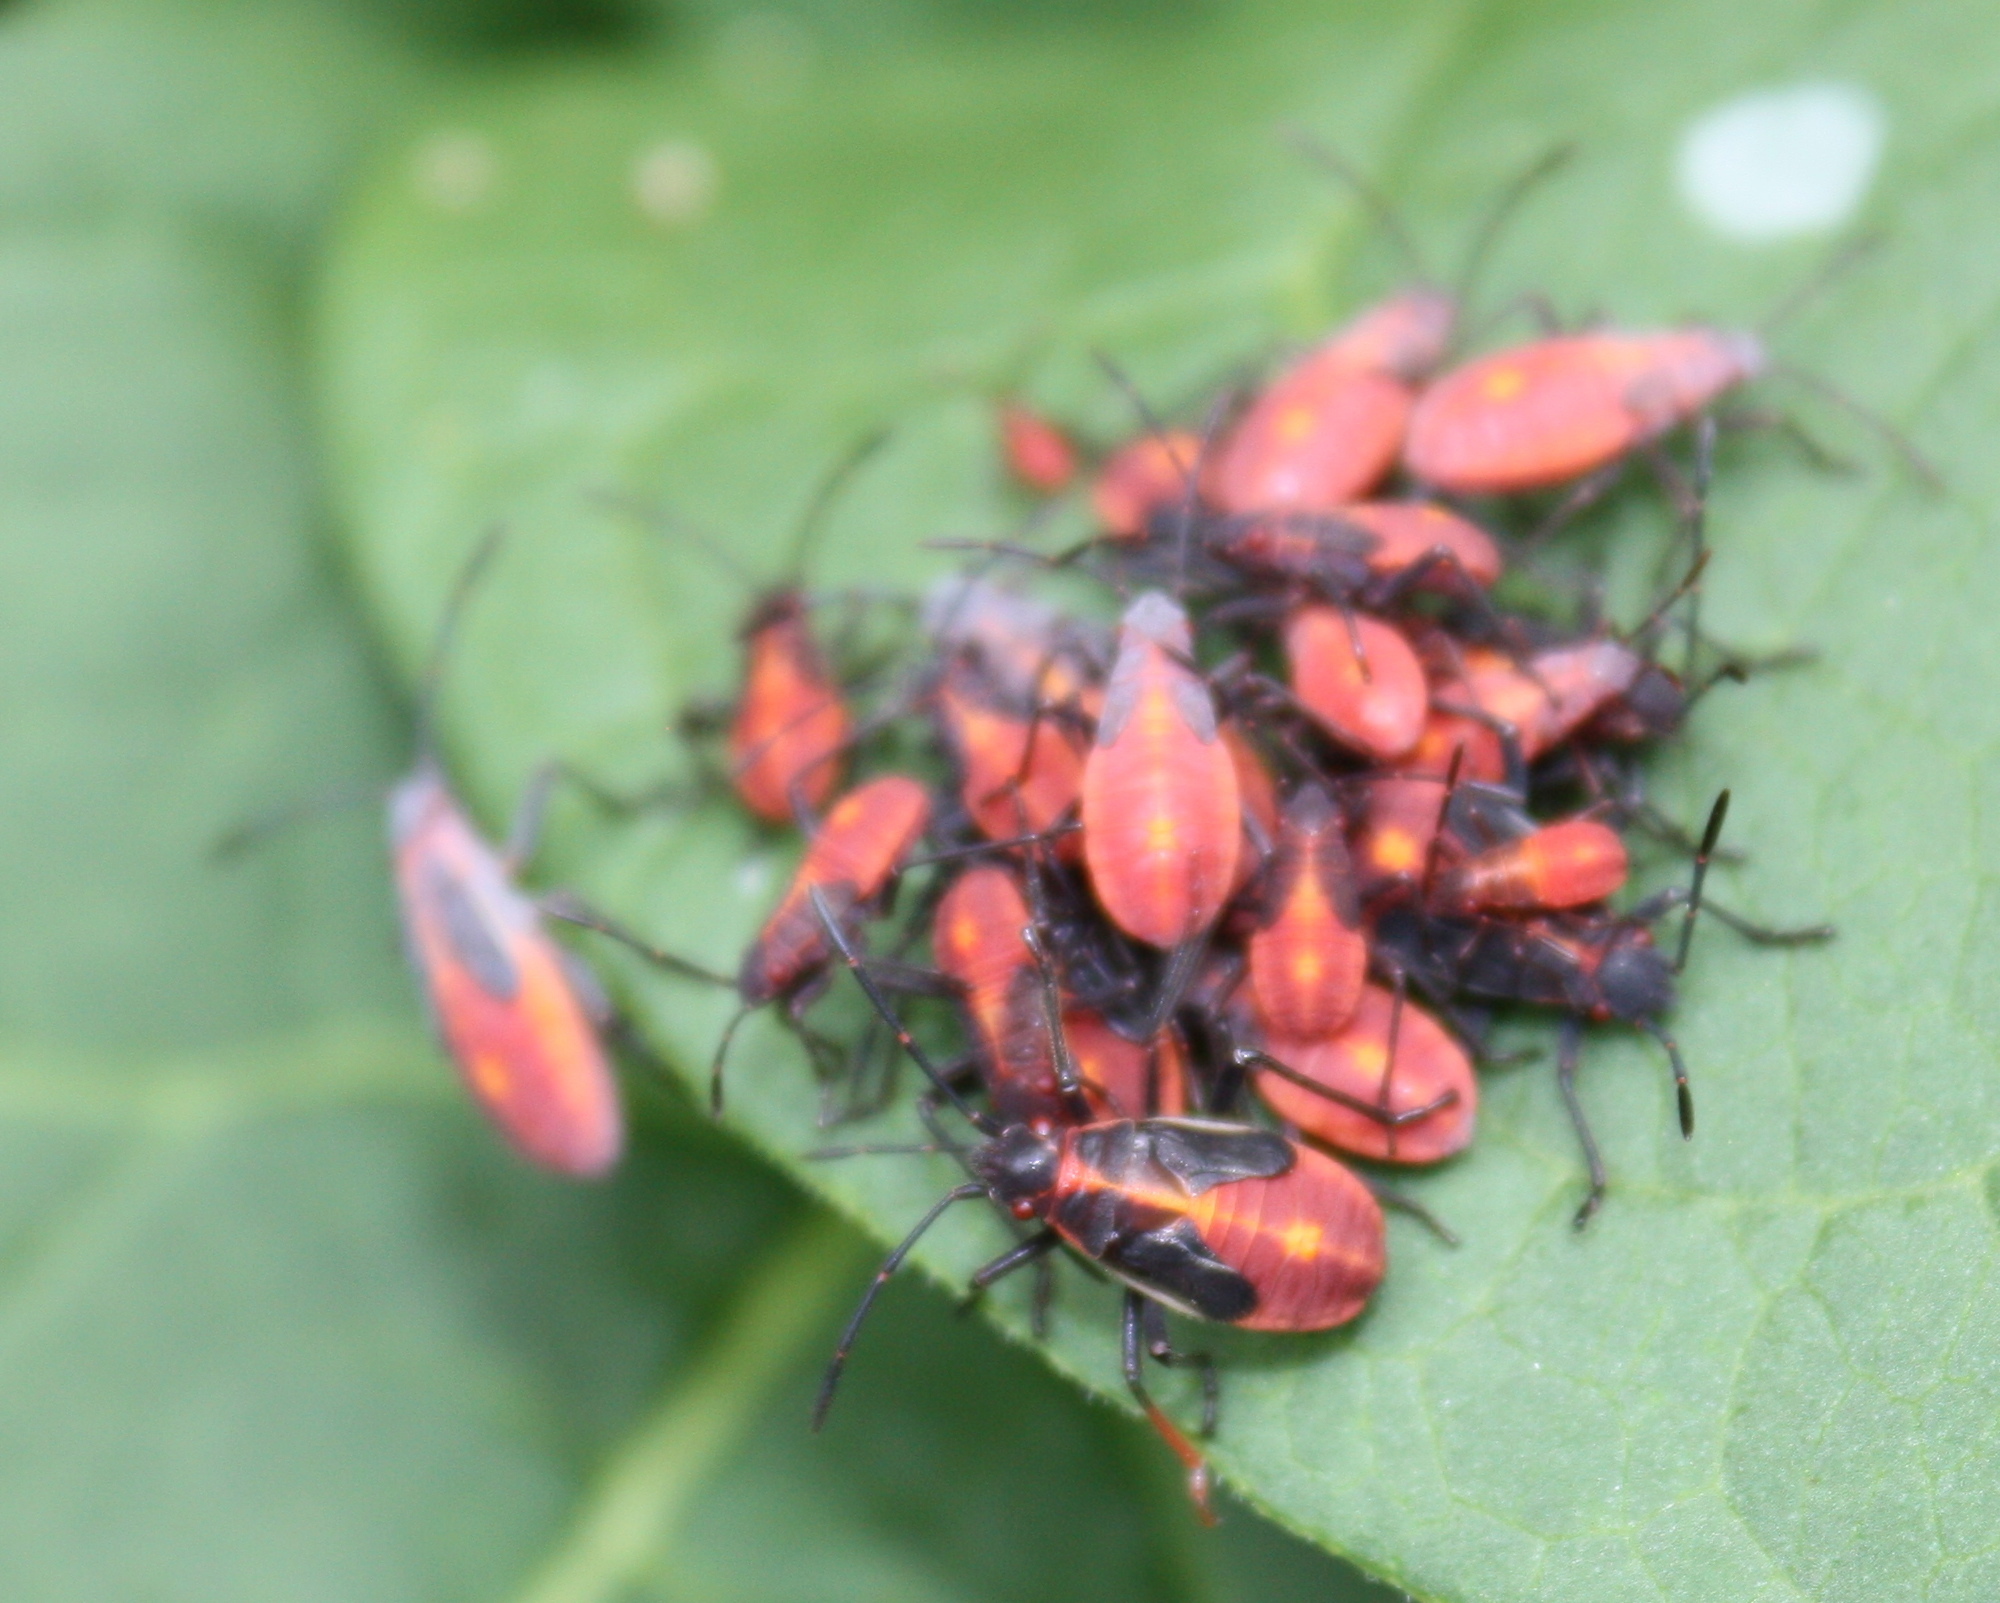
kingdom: Animalia
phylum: Arthropoda
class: Insecta
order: Hemiptera
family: Rhopalidae
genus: Boisea
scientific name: Boisea trivittata
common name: Boxelder bug
